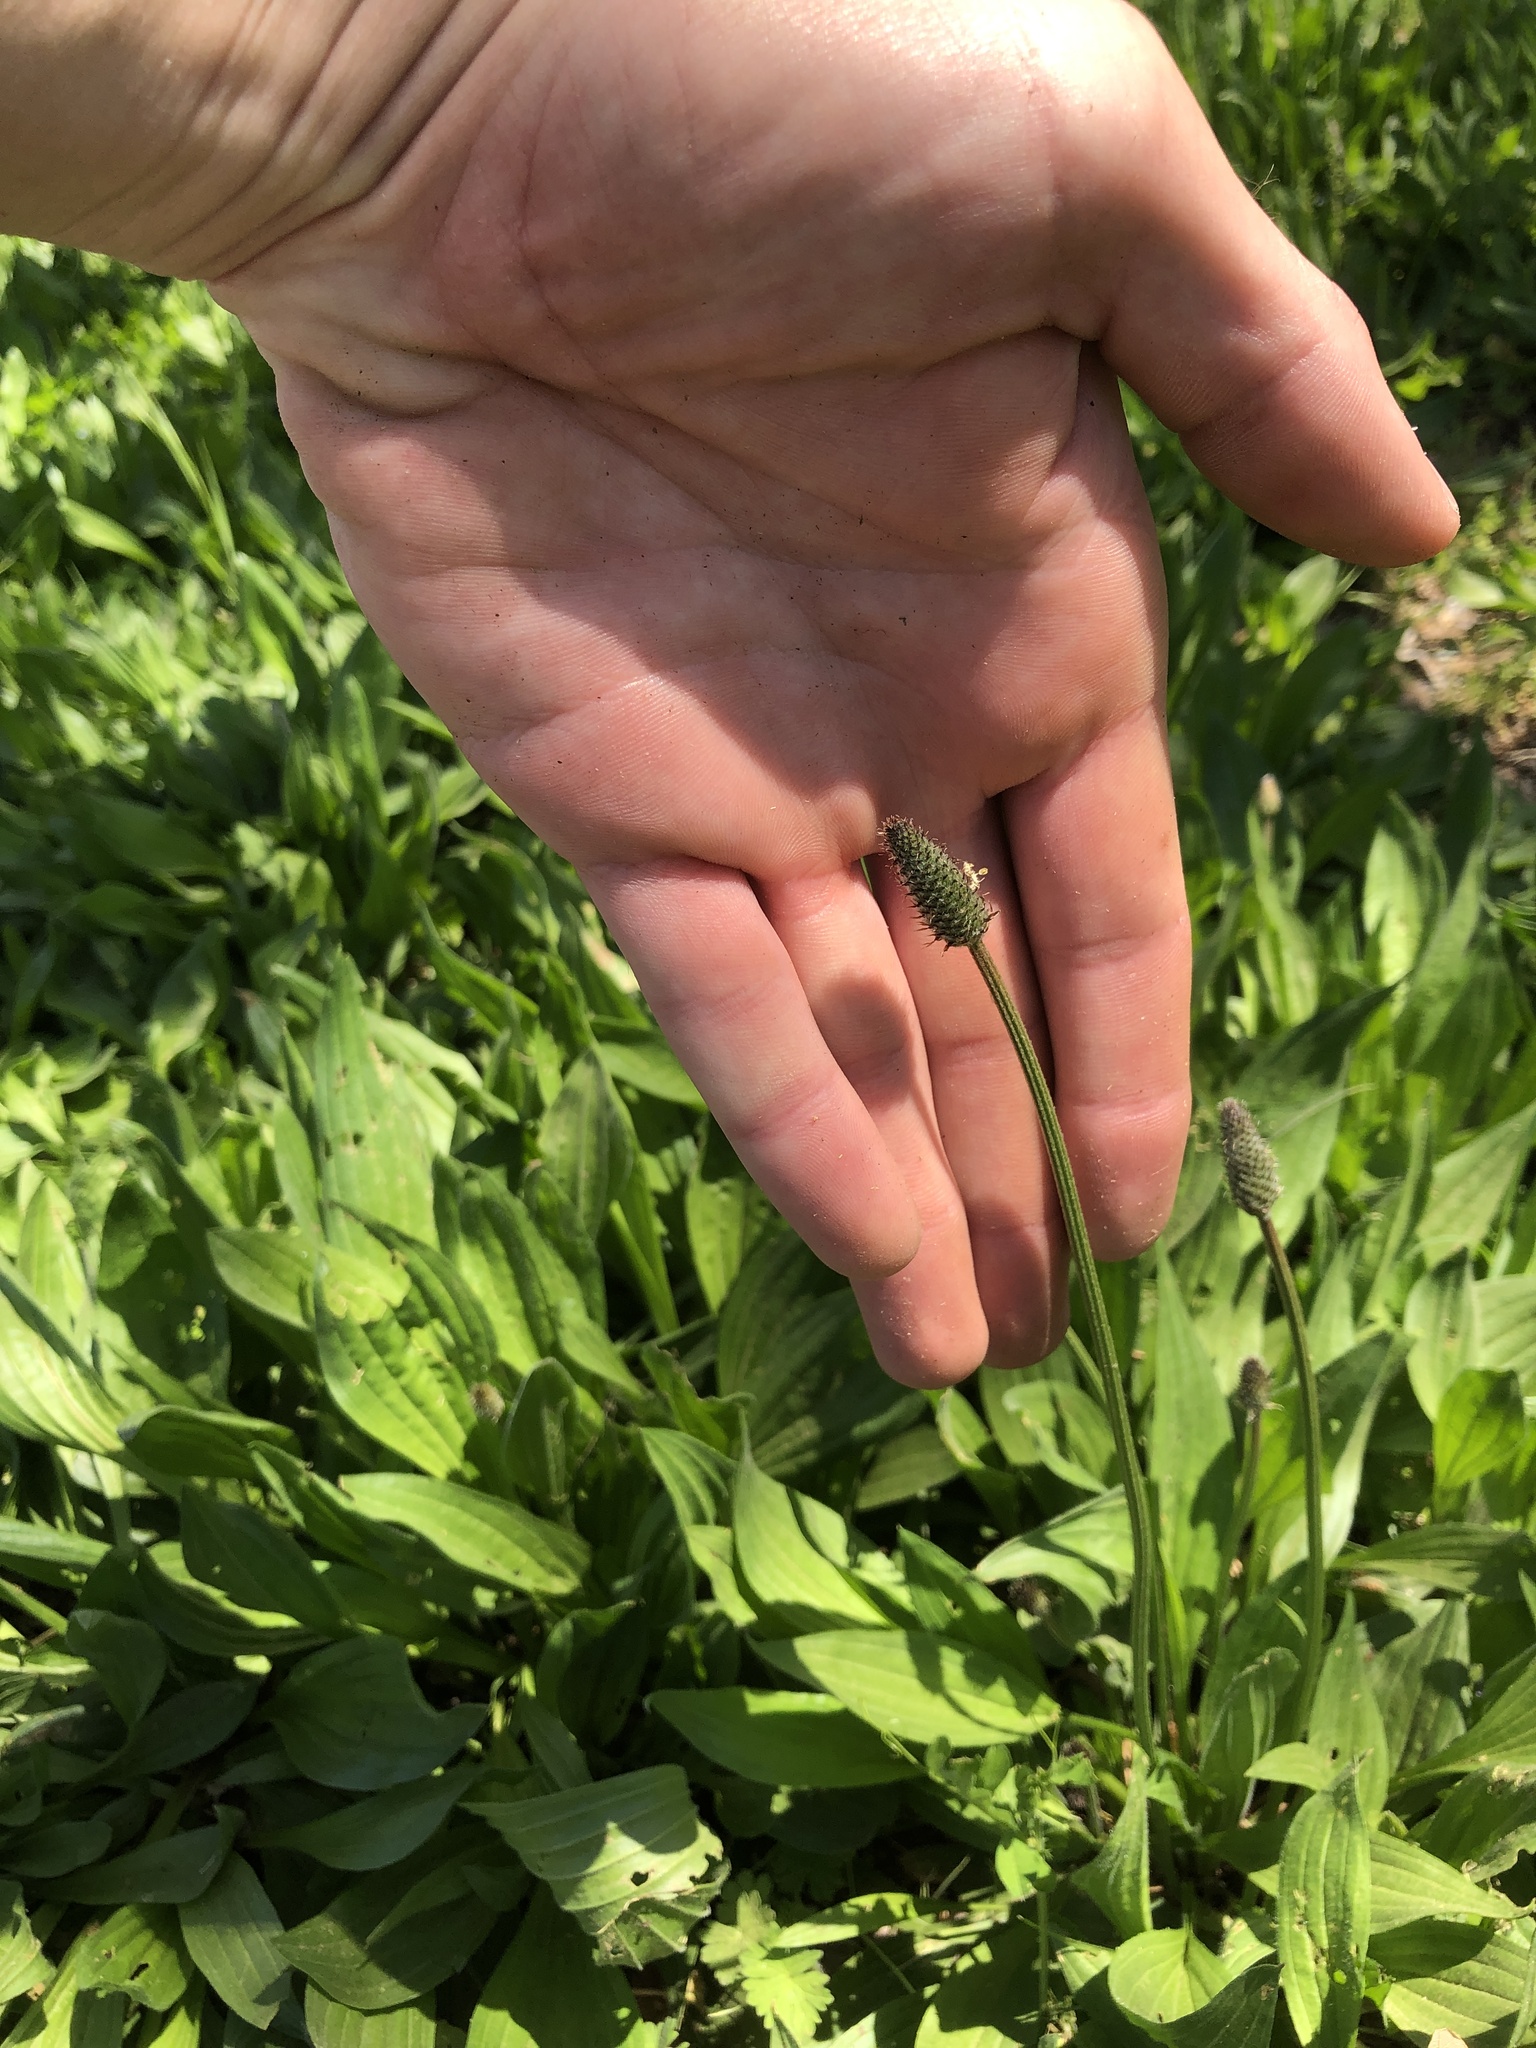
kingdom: Plantae
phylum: Tracheophyta
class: Magnoliopsida
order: Lamiales
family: Plantaginaceae
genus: Plantago
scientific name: Plantago lanceolata
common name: Ribwort plantain
